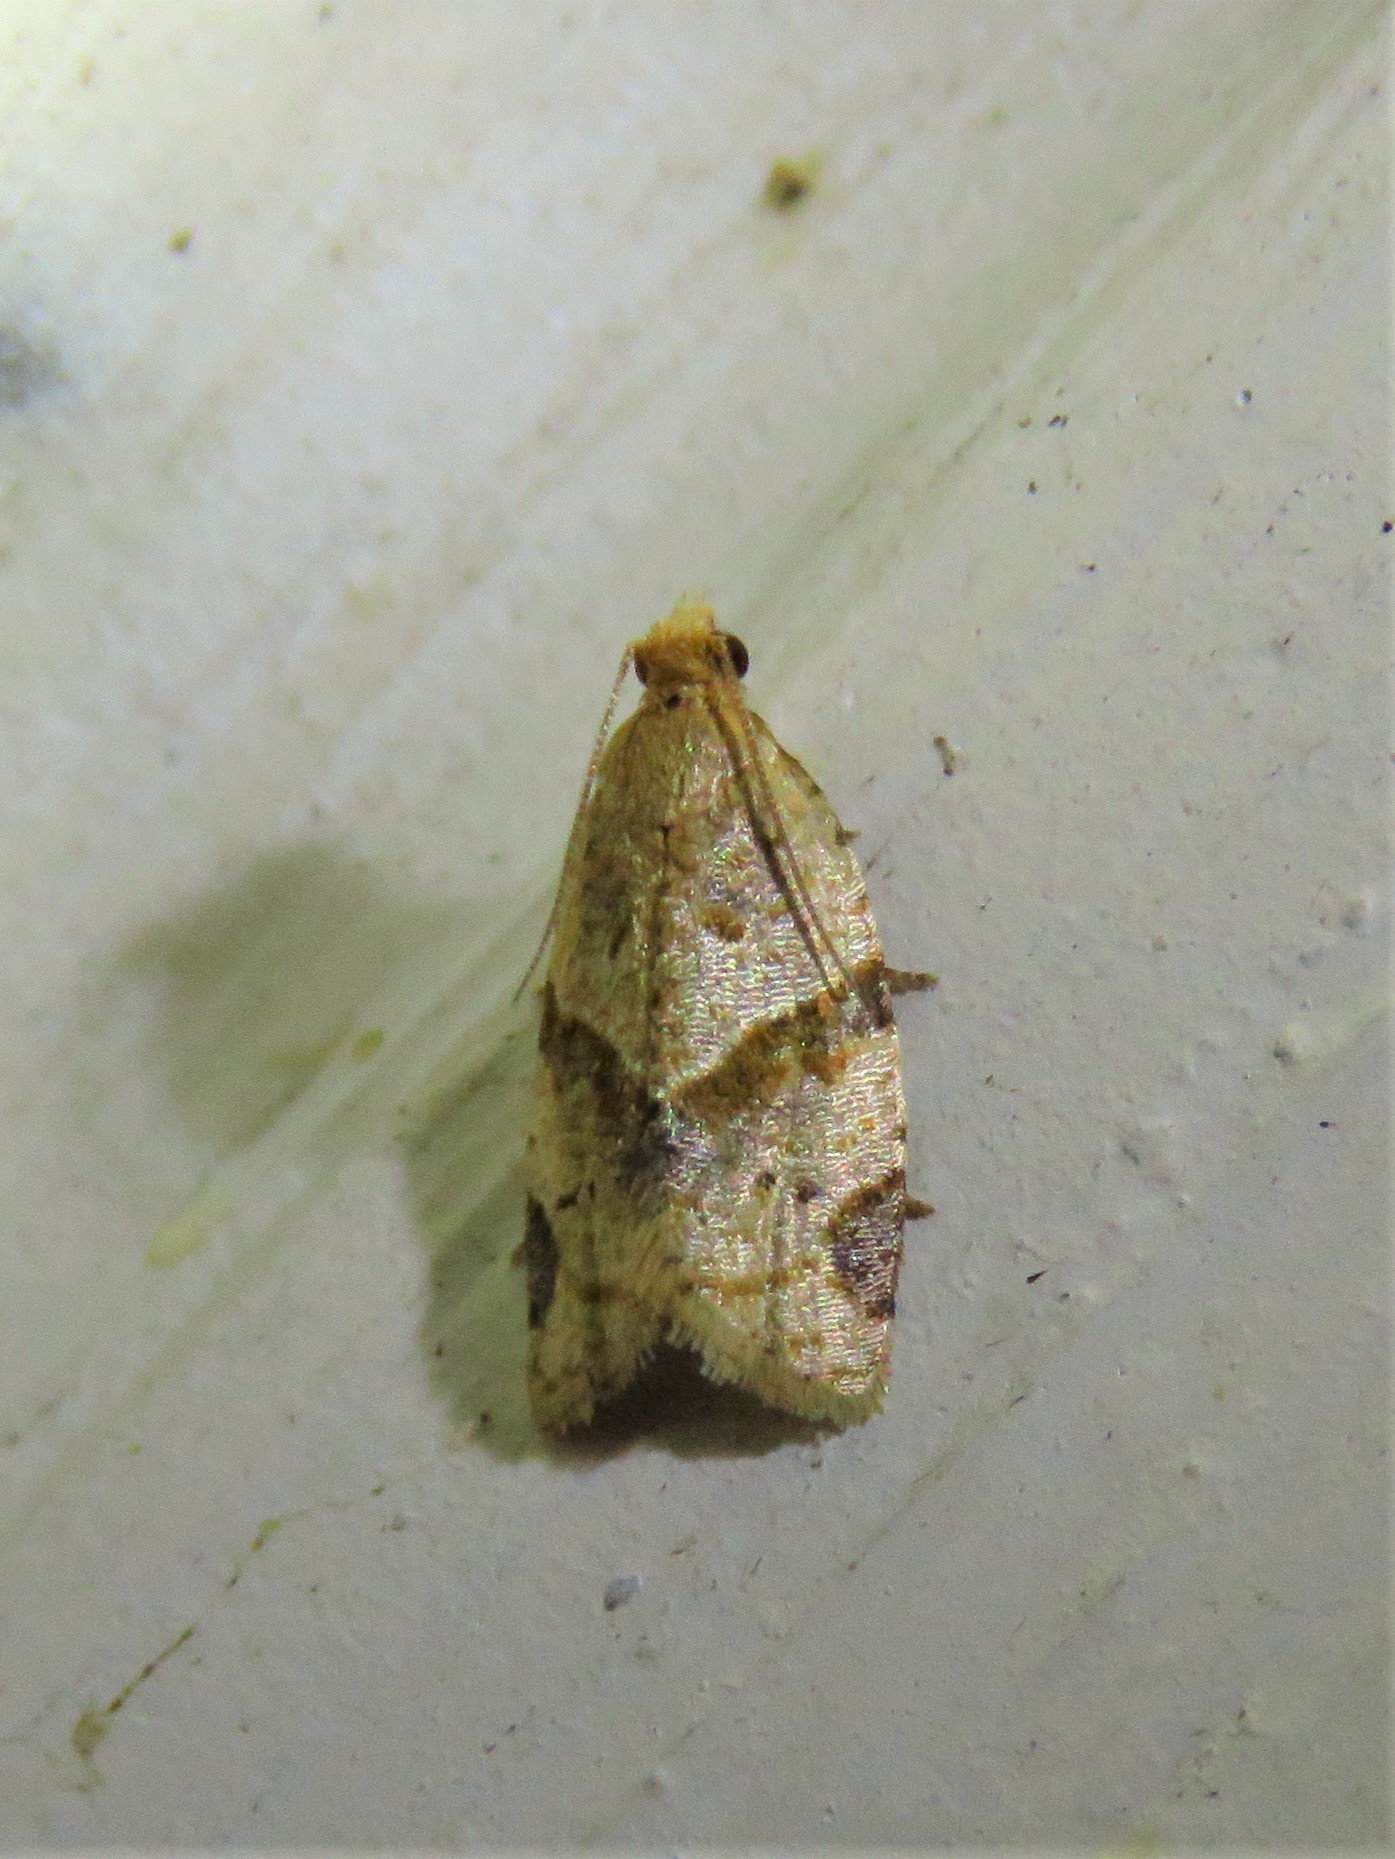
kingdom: Animalia
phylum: Arthropoda
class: Insecta
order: Lepidoptera
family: Tortricidae
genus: Clepsis
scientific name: Clepsis peritana
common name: Garden tortrix
